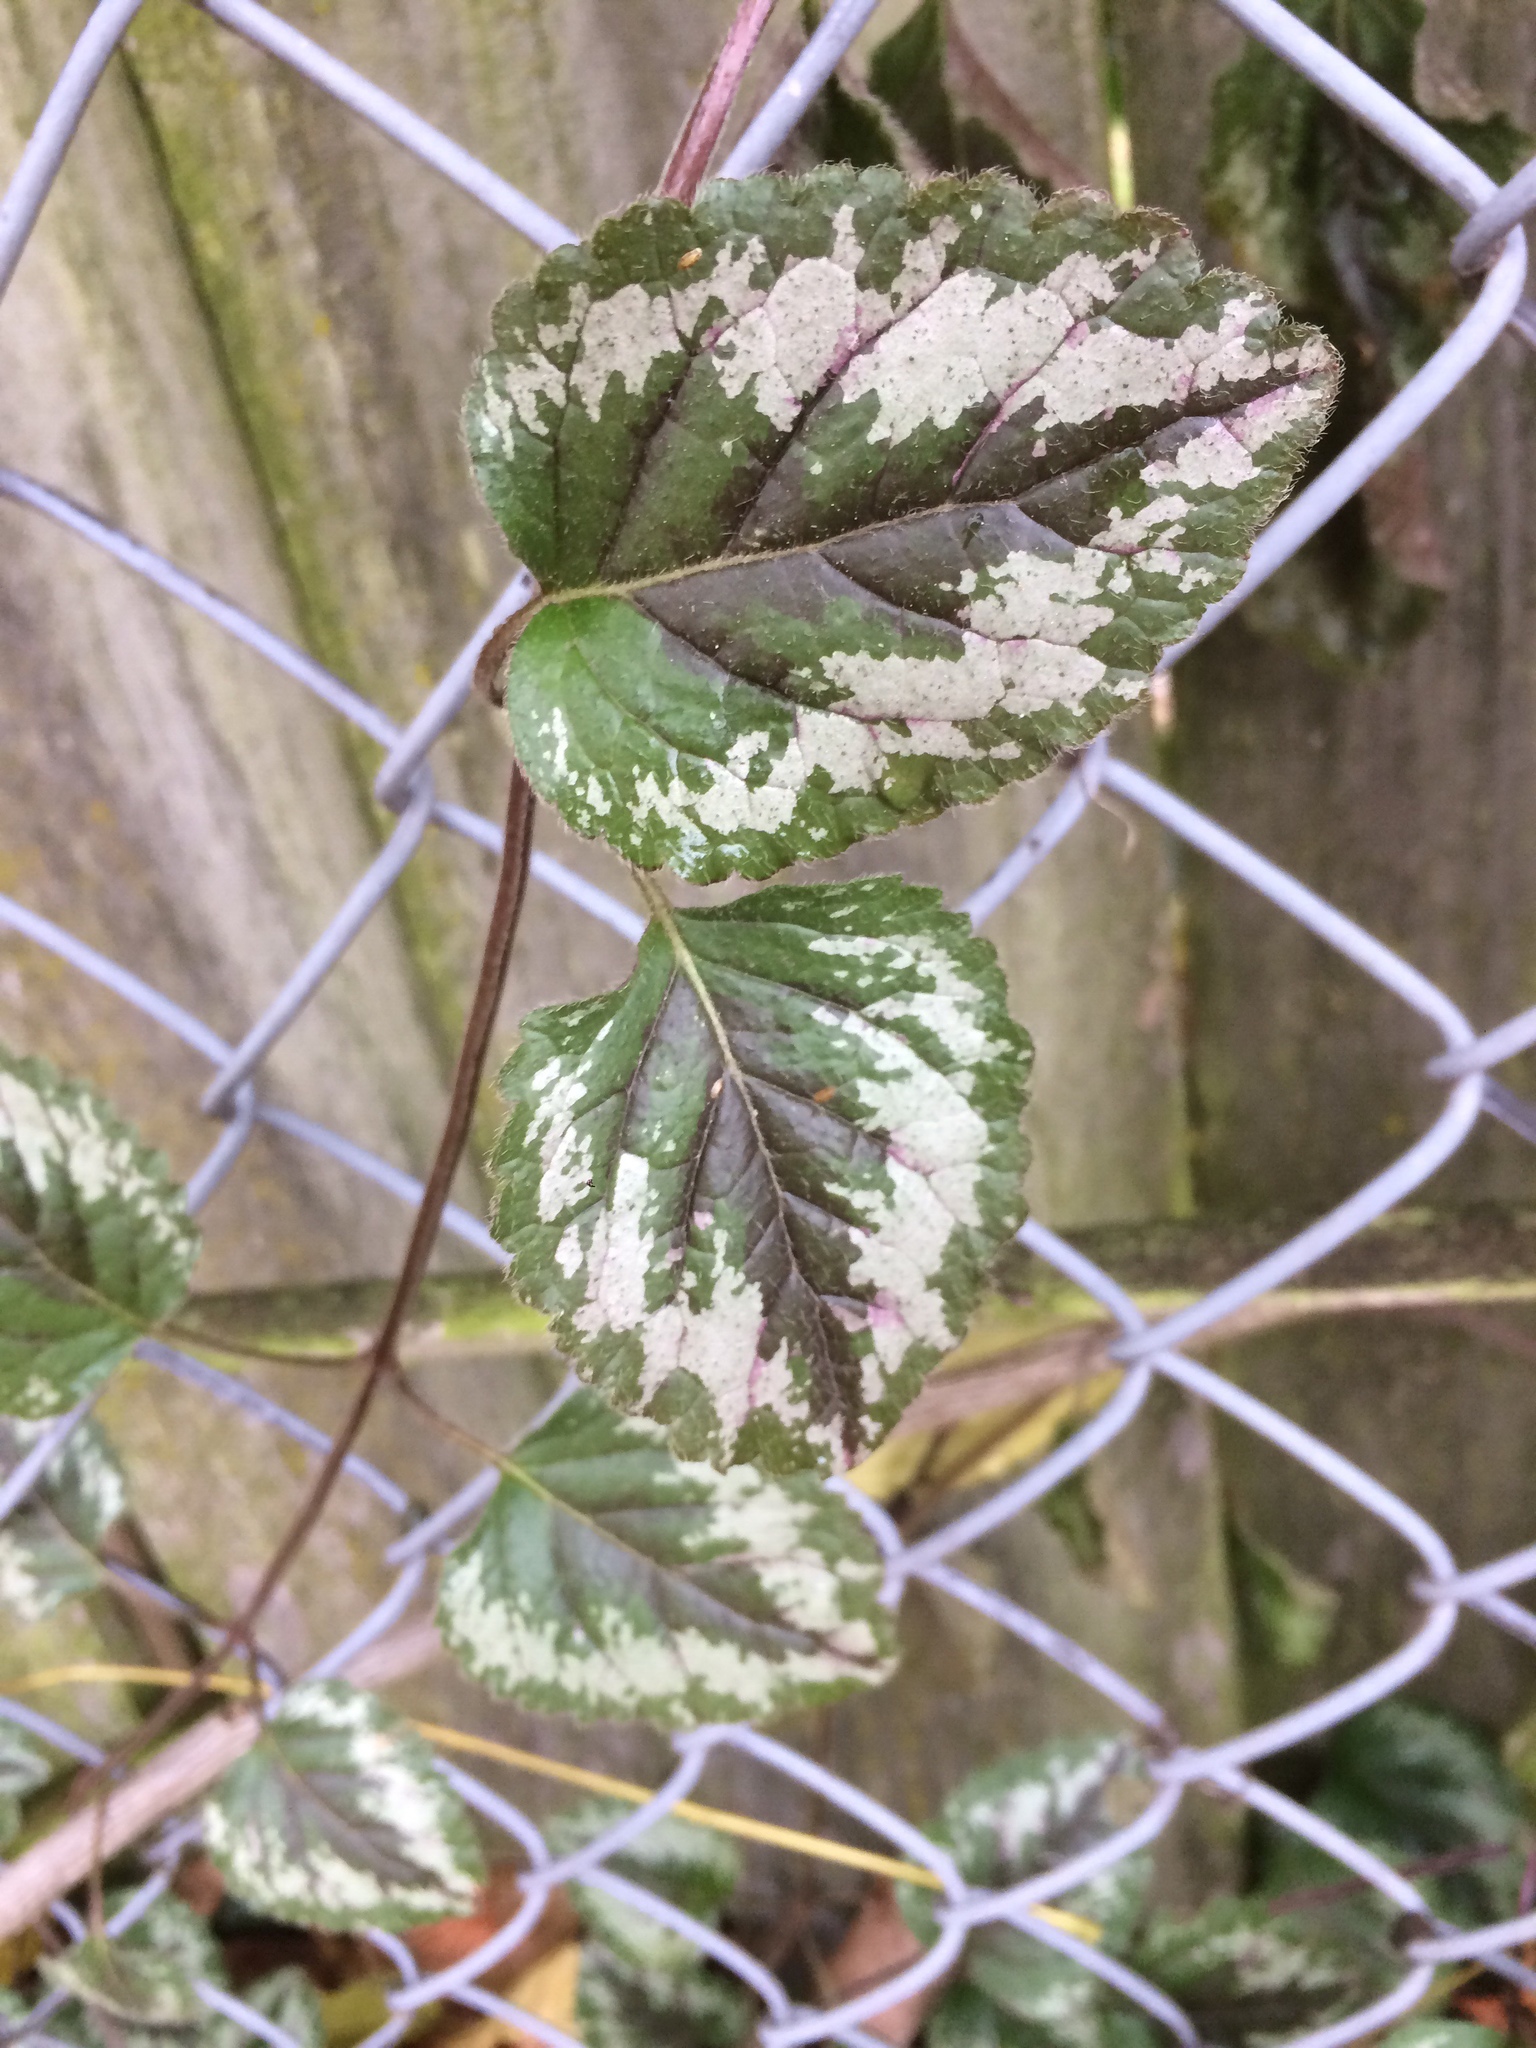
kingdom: Plantae
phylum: Tracheophyta
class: Magnoliopsida
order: Lamiales
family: Lamiaceae
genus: Lamium
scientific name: Lamium galeobdolon
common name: Yellow archangel
